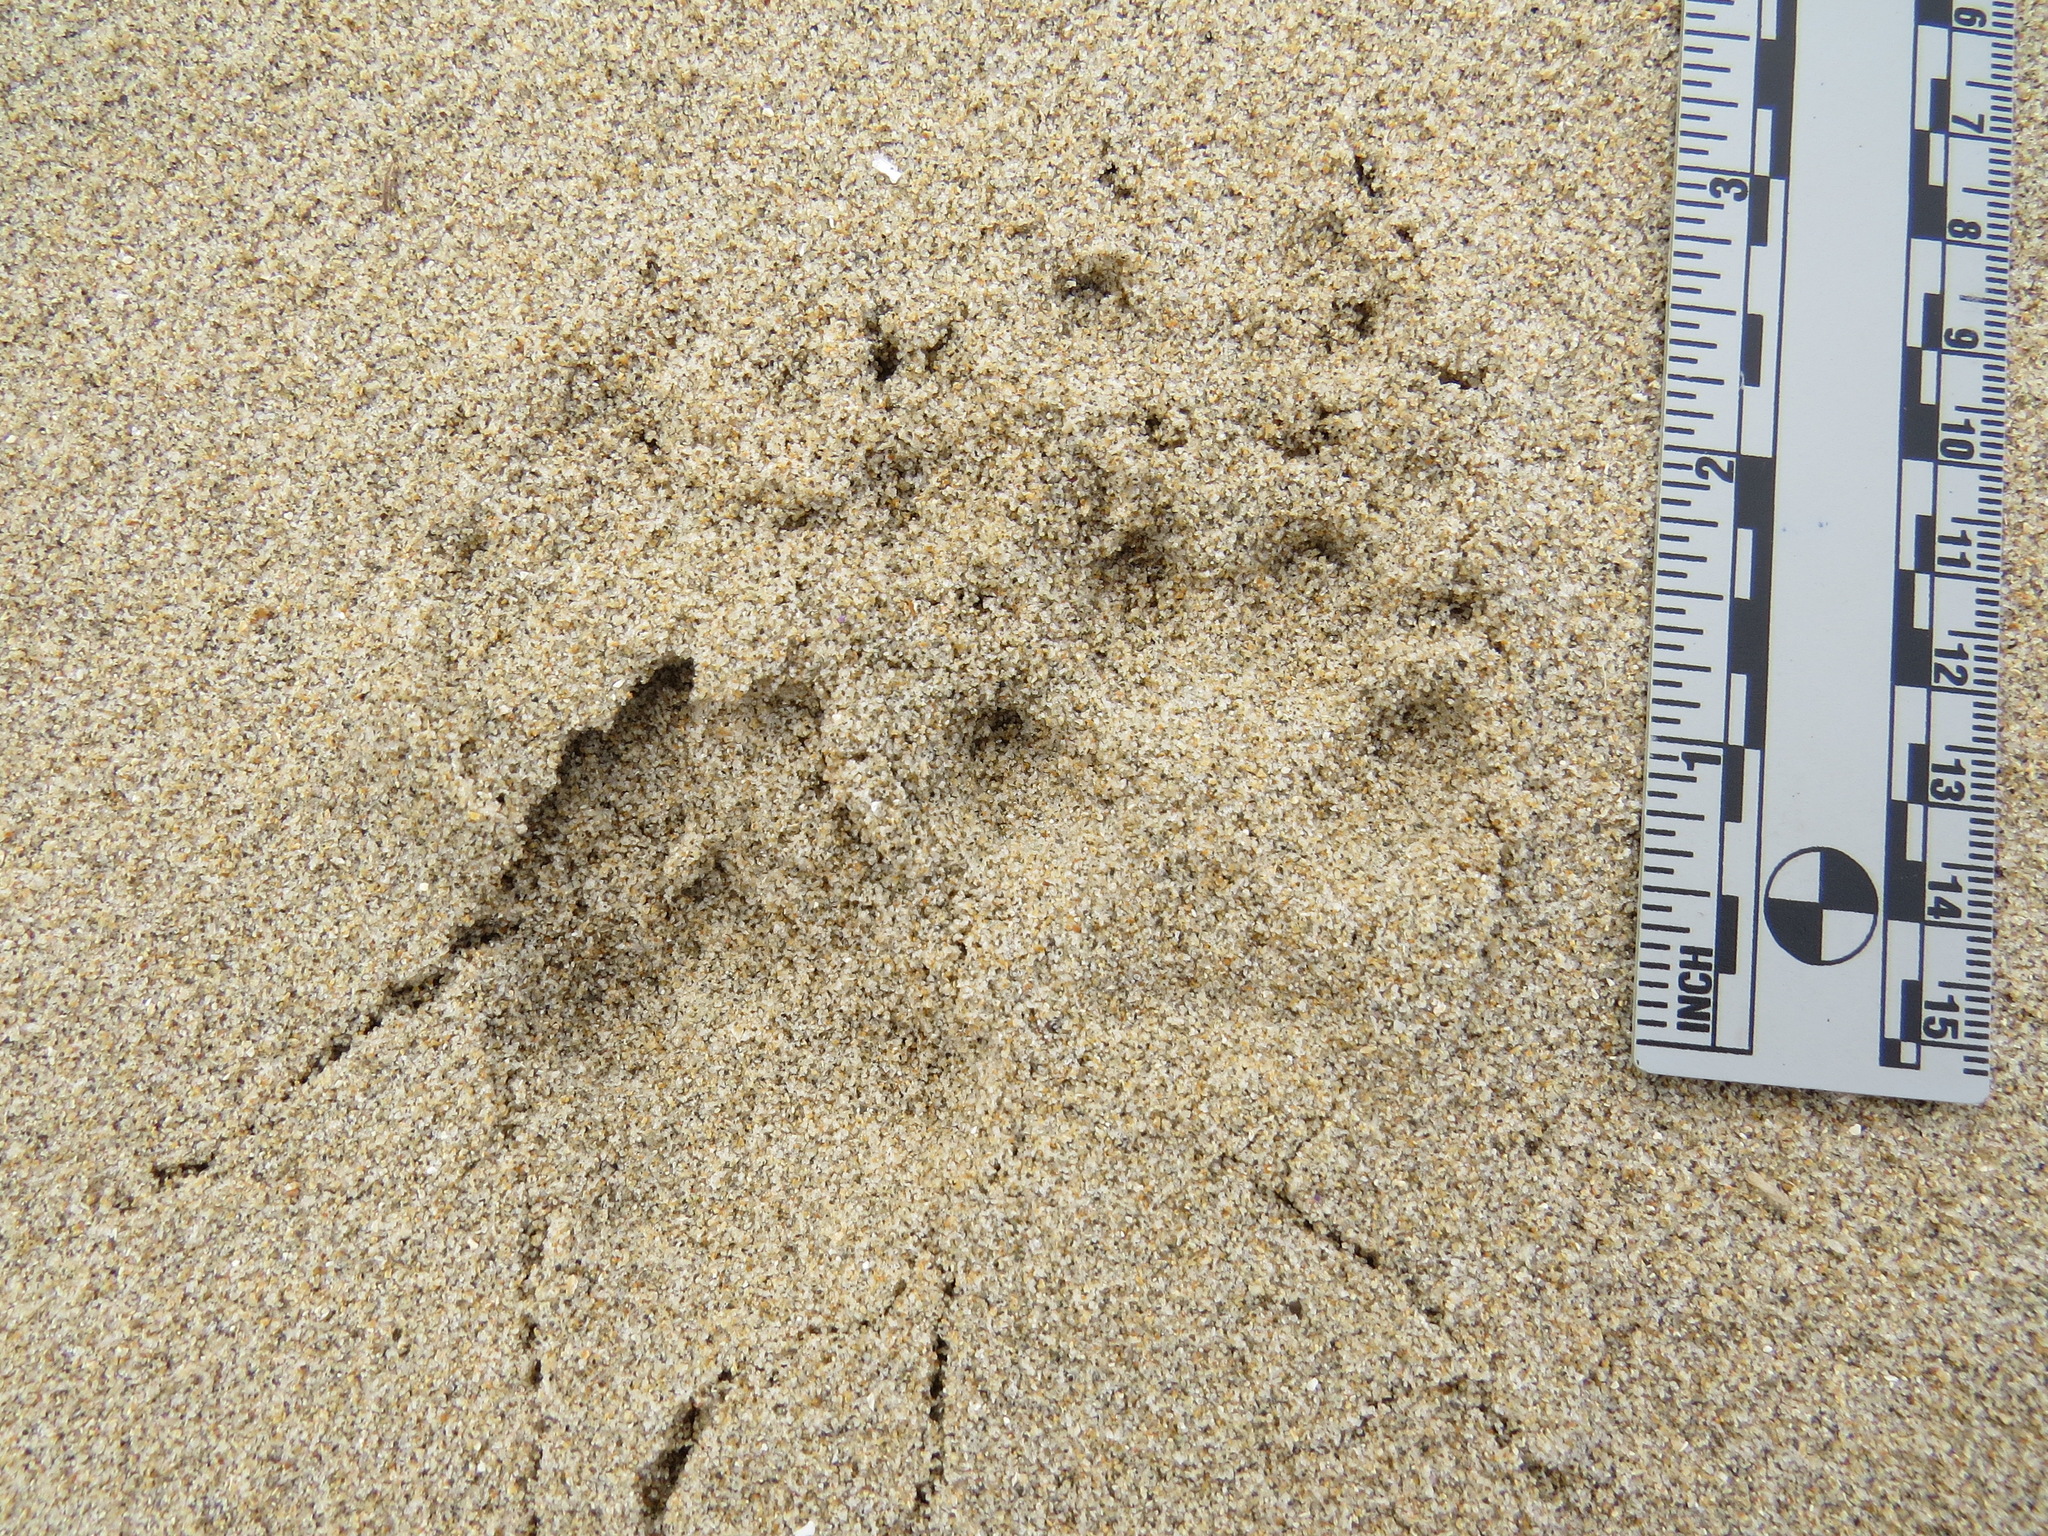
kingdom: Animalia
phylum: Chordata
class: Mammalia
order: Carnivora
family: Canidae
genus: Urocyon
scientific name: Urocyon cinereoargenteus
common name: Gray fox
